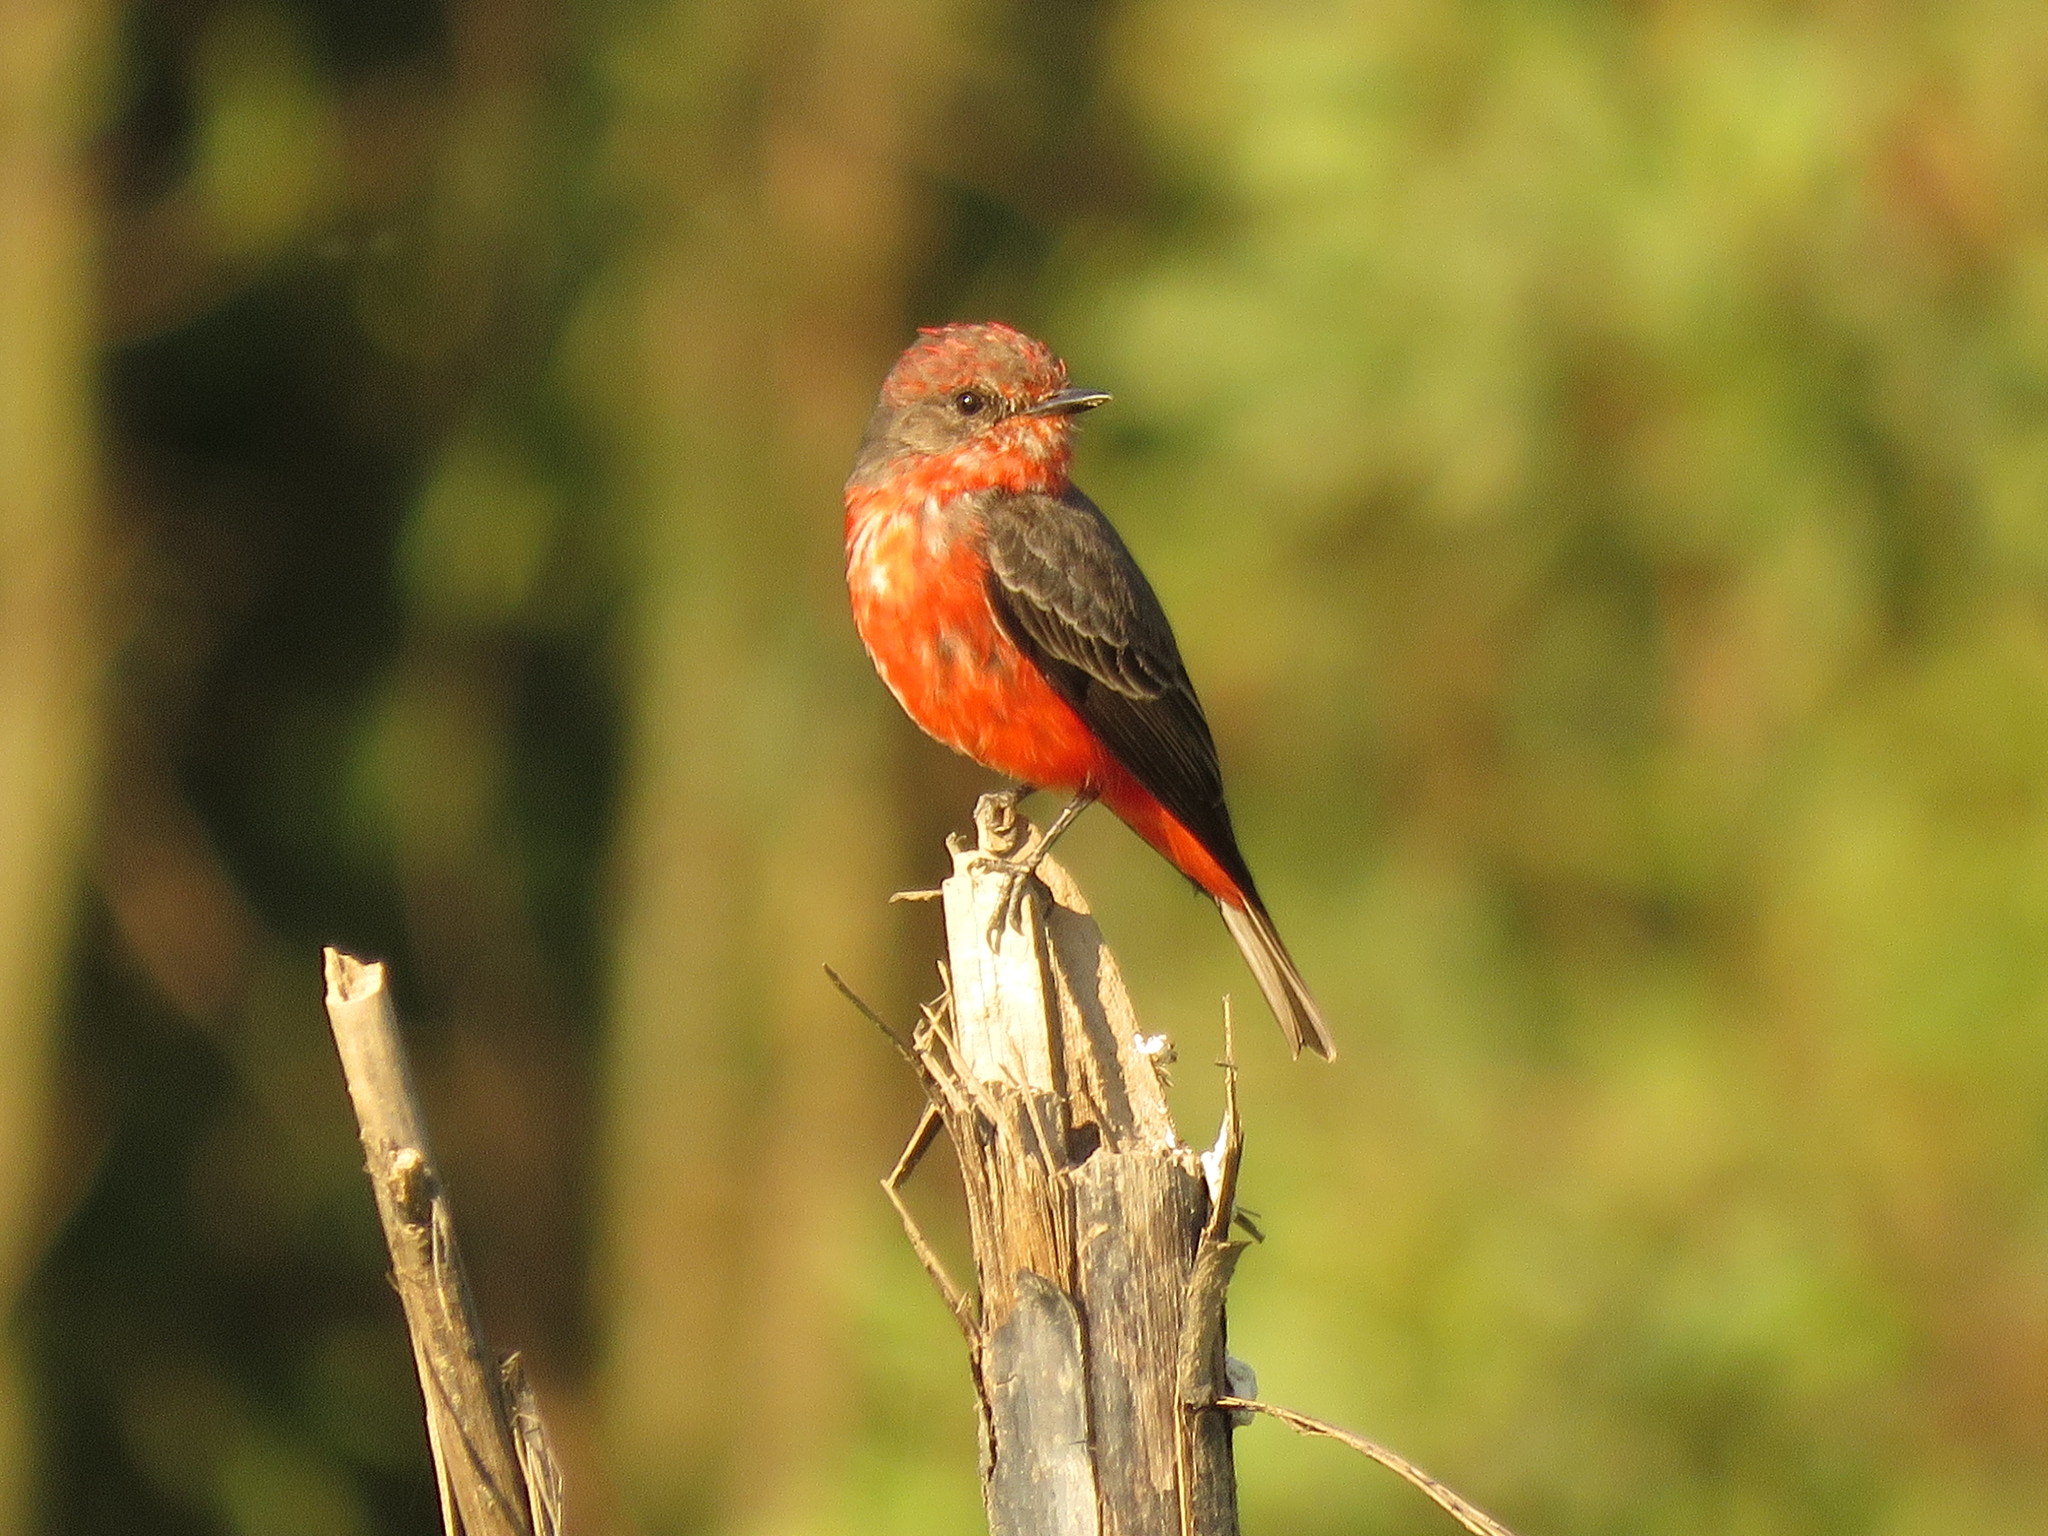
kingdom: Animalia
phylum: Chordata
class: Aves
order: Passeriformes
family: Tyrannidae
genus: Pyrocephalus
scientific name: Pyrocephalus rubinus
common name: Vermilion flycatcher
